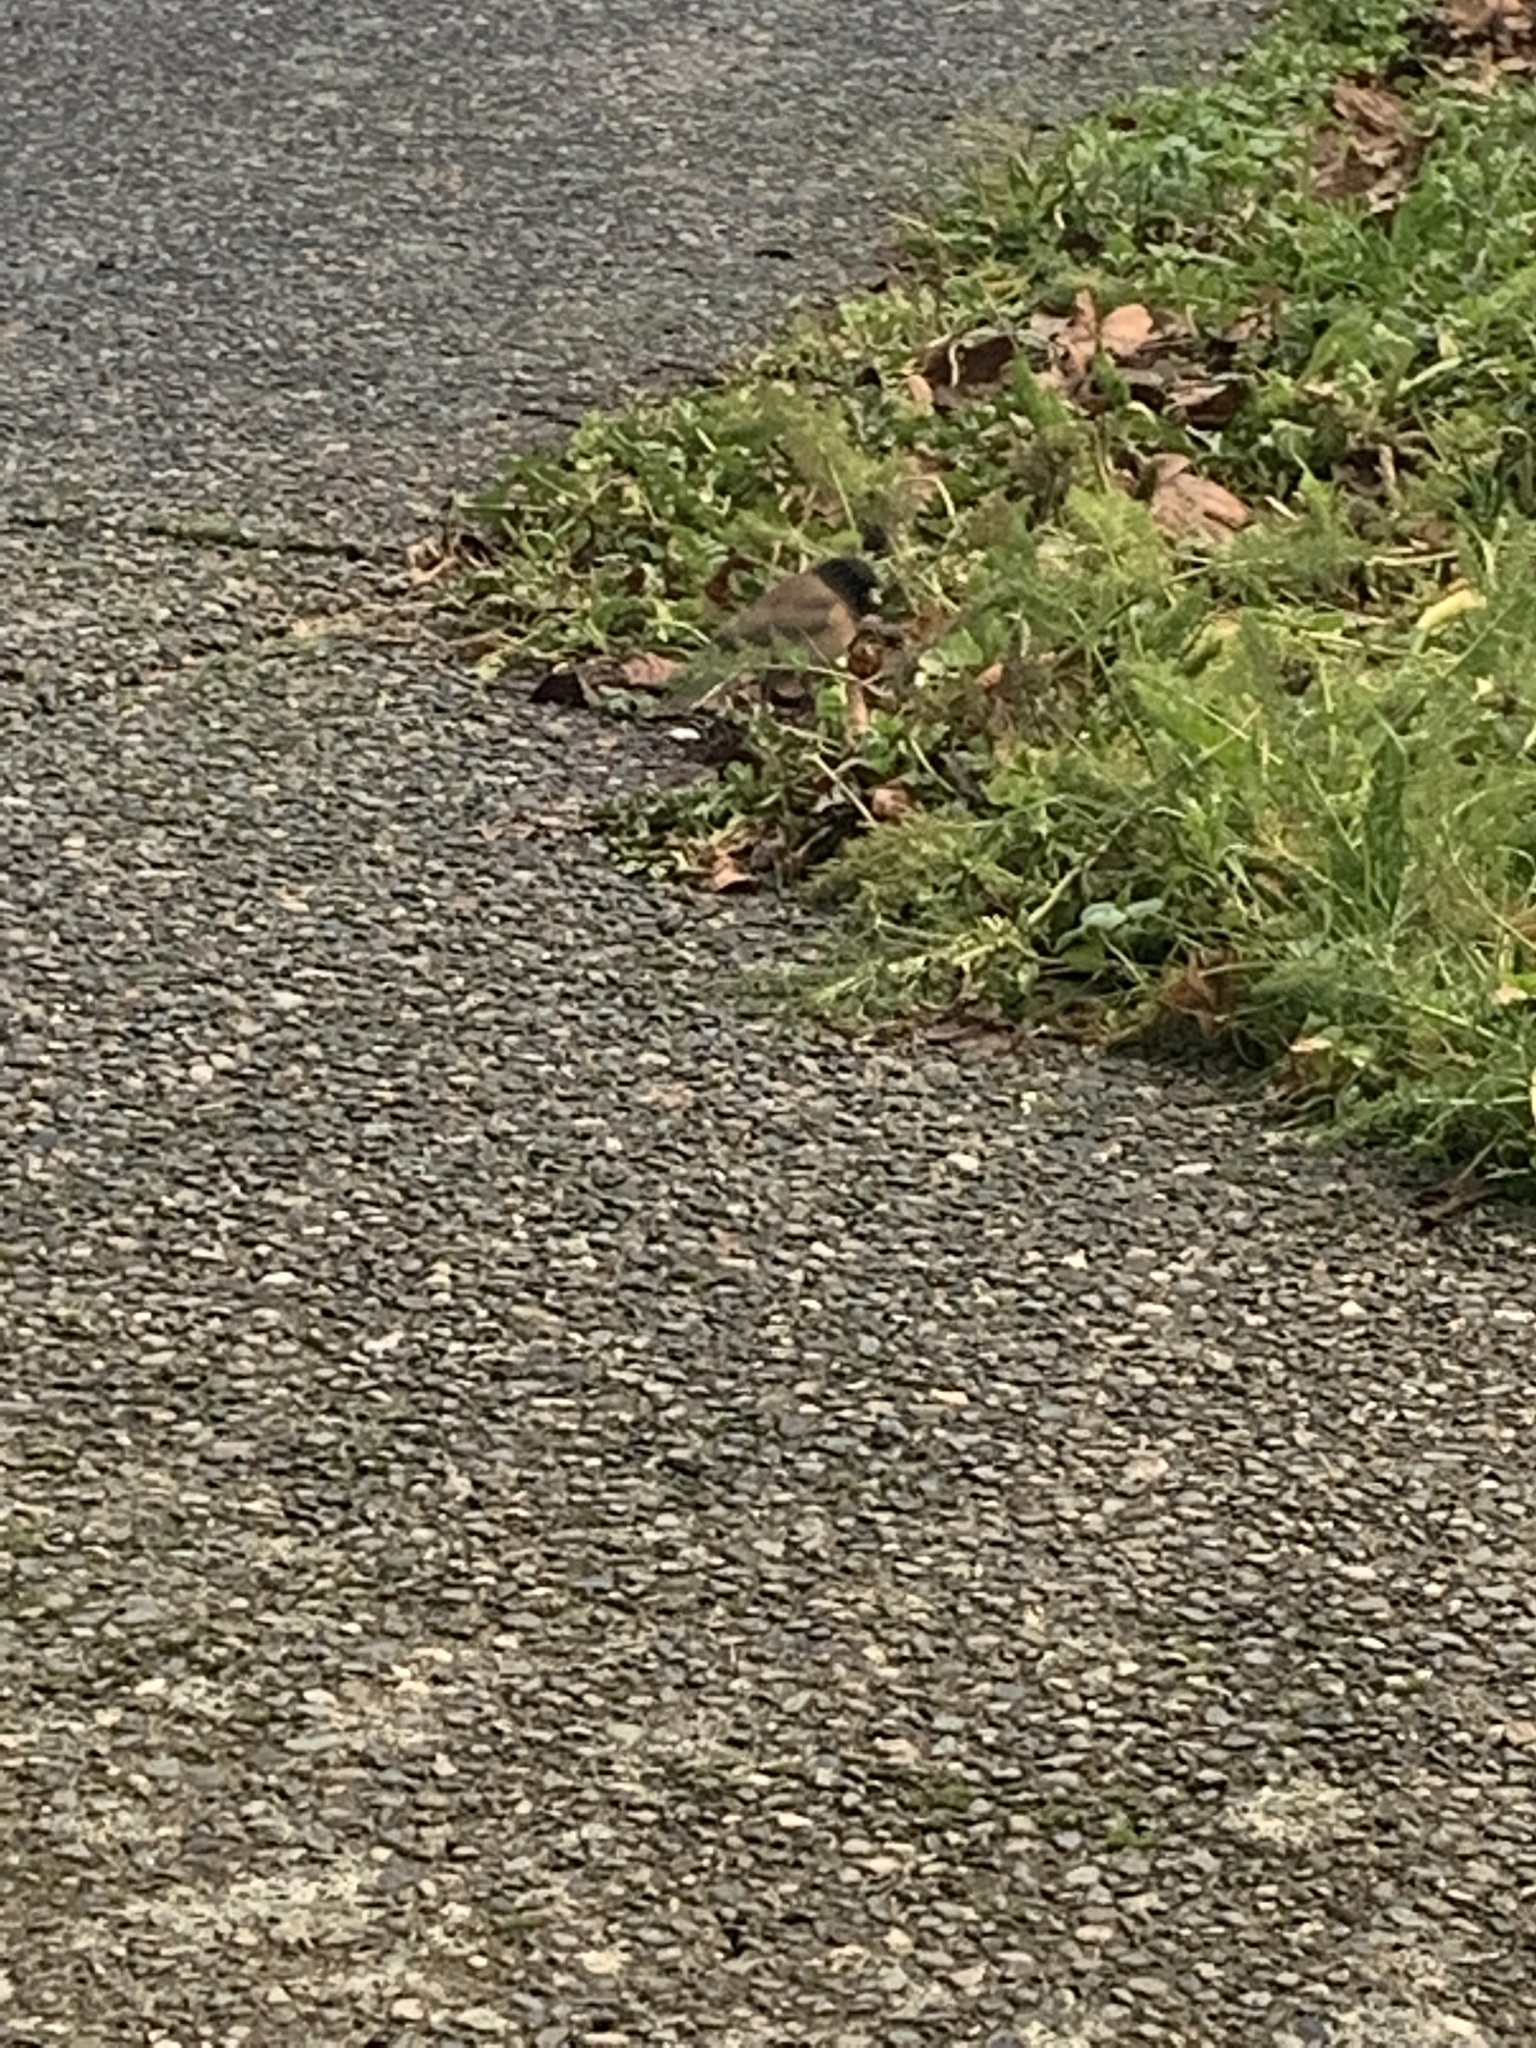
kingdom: Animalia
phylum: Chordata
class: Aves
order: Passeriformes
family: Passerellidae
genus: Junco
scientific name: Junco hyemalis
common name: Dark-eyed junco
